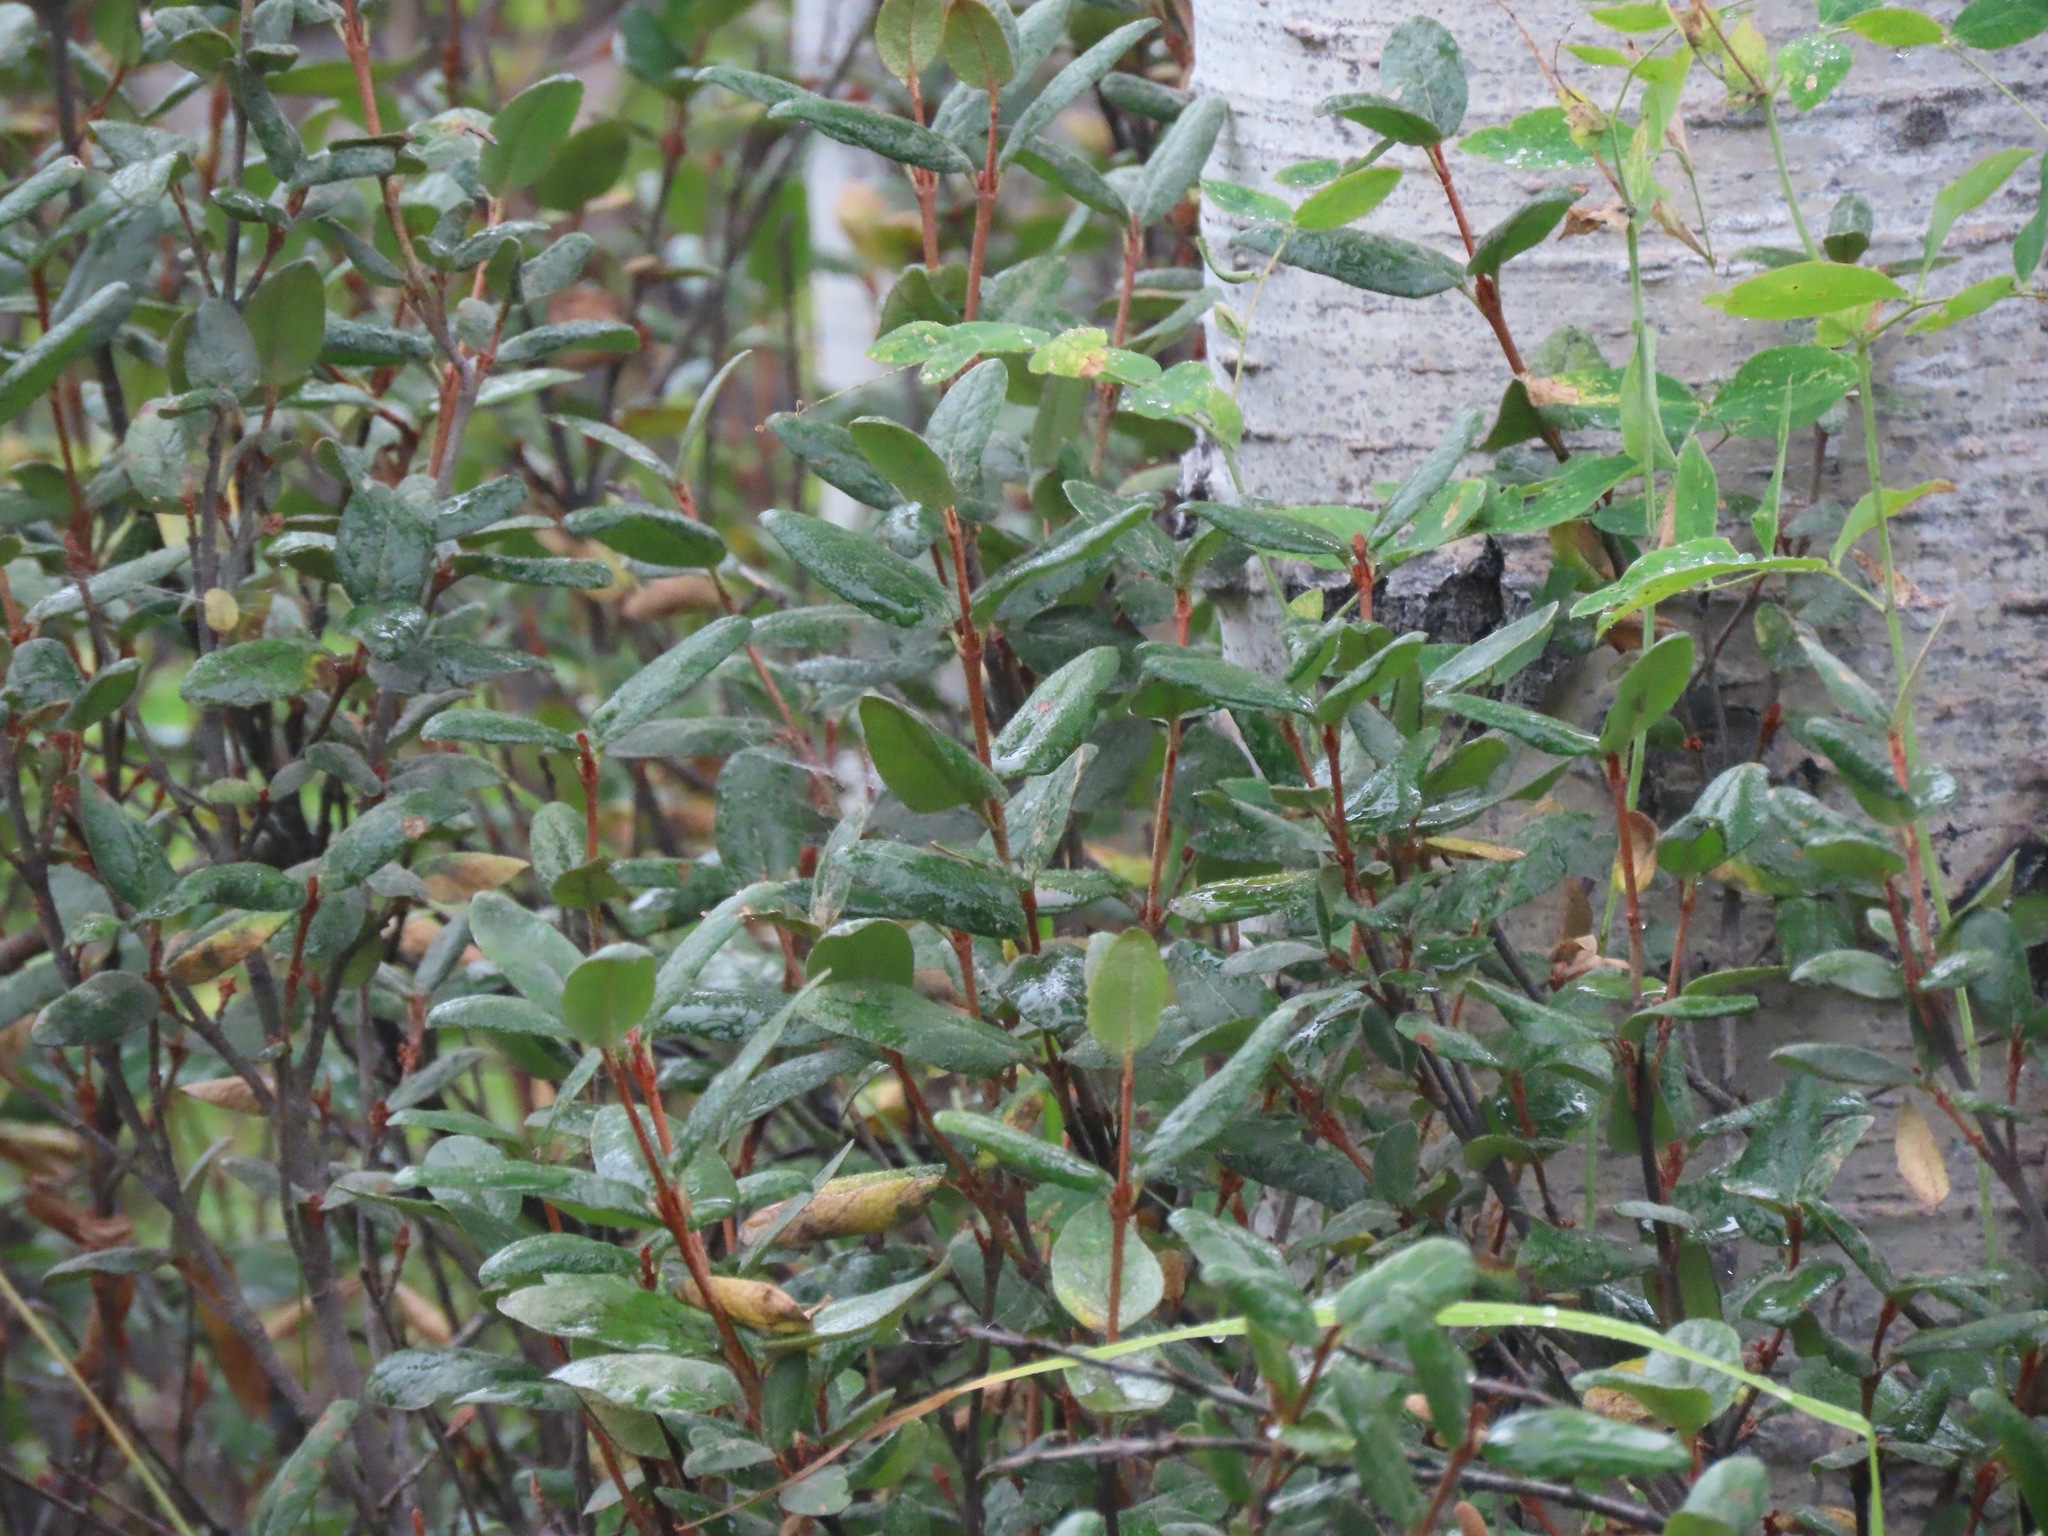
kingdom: Plantae
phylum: Tracheophyta
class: Magnoliopsida
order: Rosales
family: Elaeagnaceae
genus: Shepherdia
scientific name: Shepherdia canadensis
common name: Soapberry
